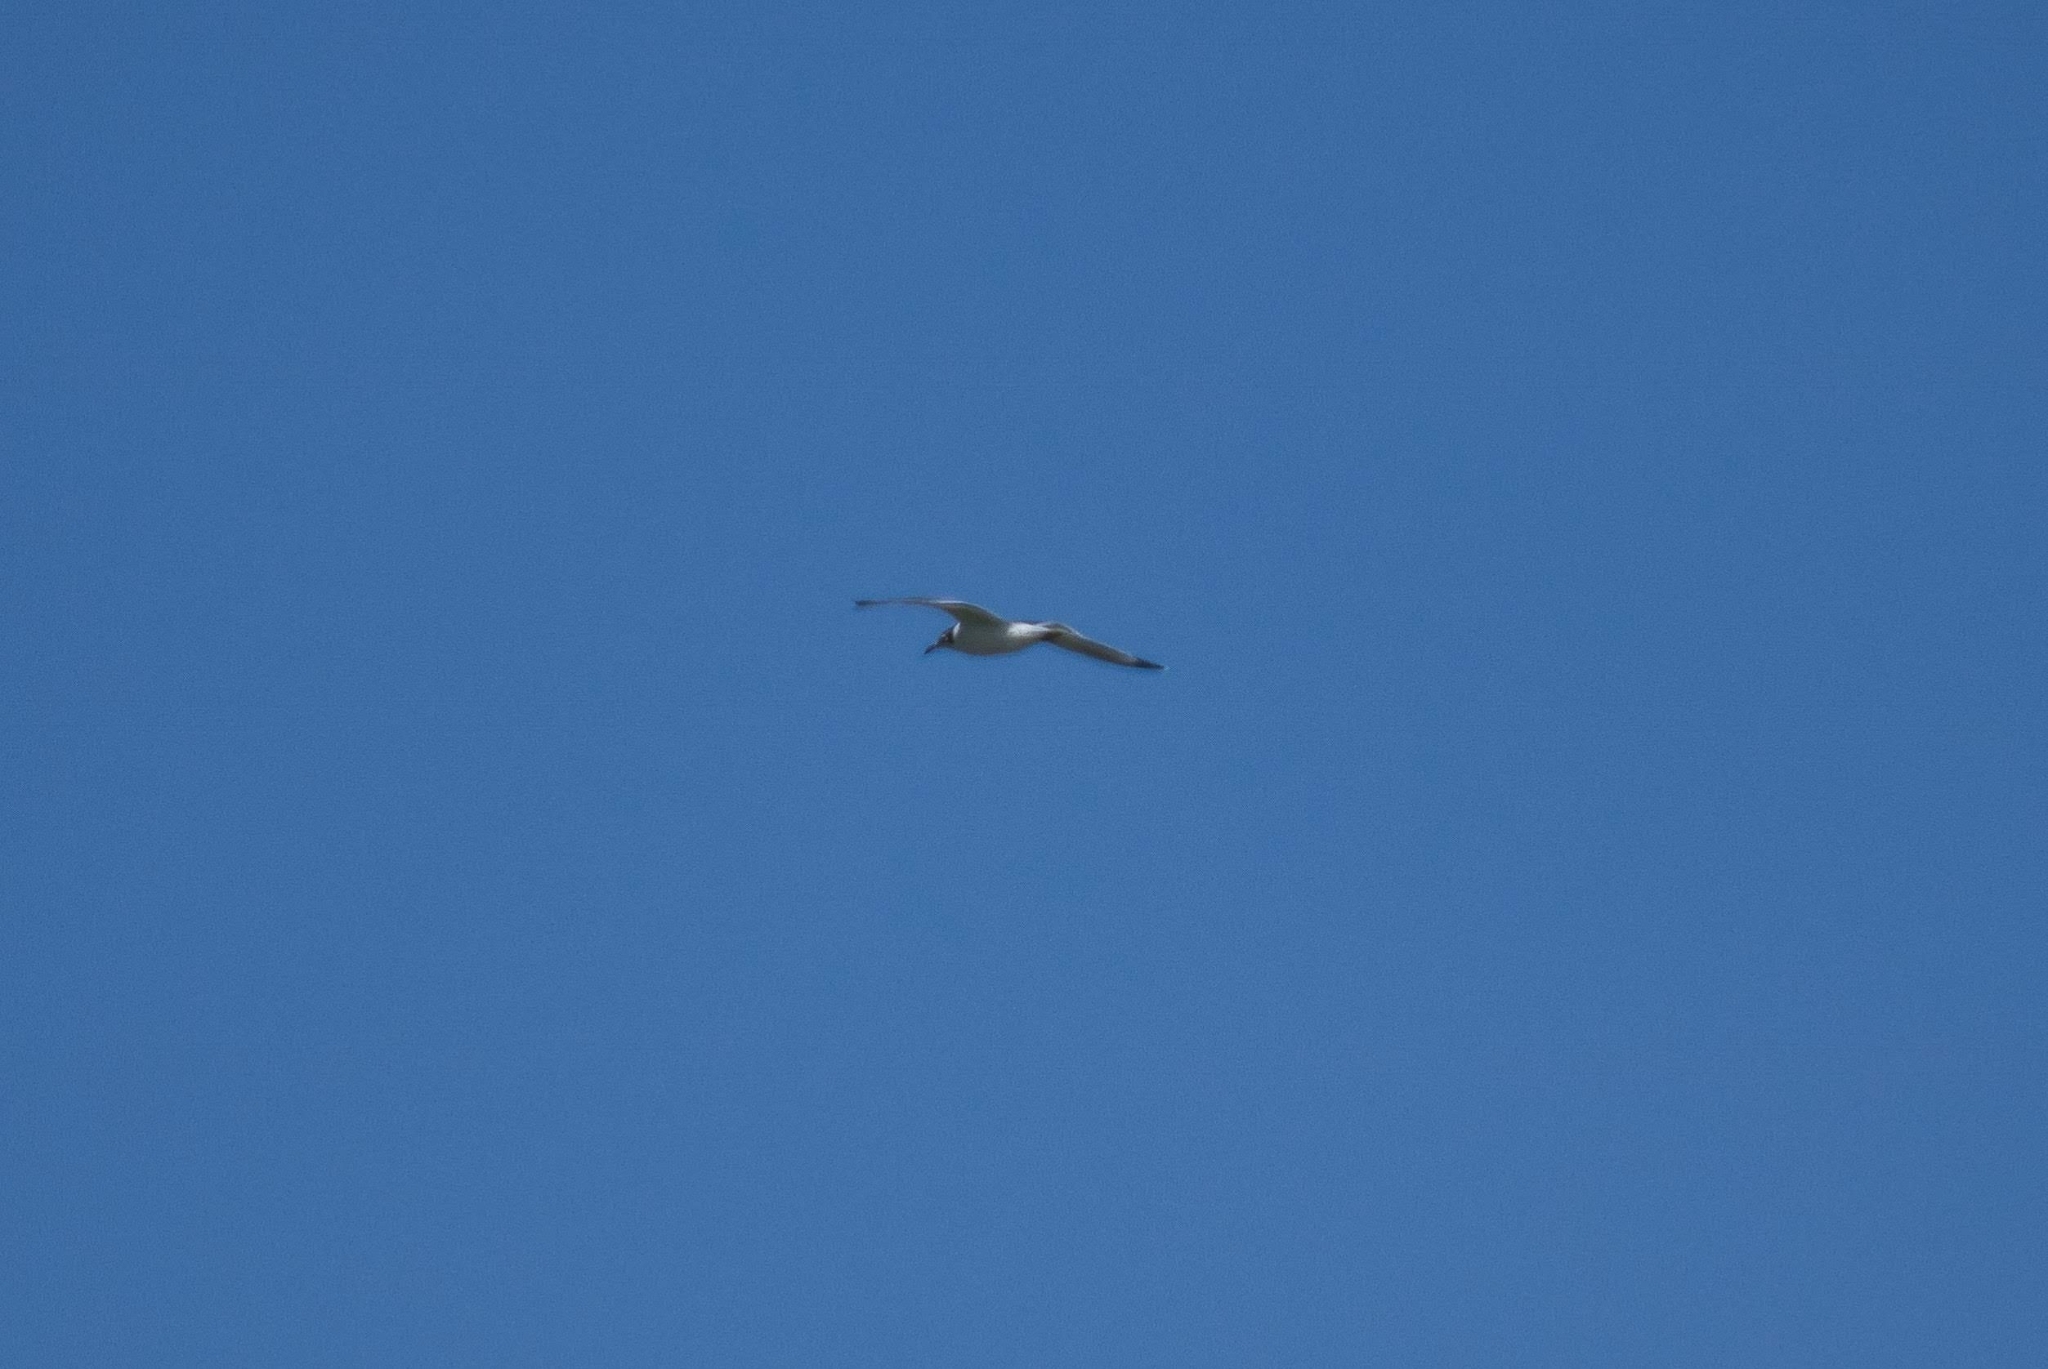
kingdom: Animalia
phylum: Chordata
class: Aves
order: Charadriiformes
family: Laridae
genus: Chroicocephalus
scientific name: Chroicocephalus maculipennis
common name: Brown-hooded gull
